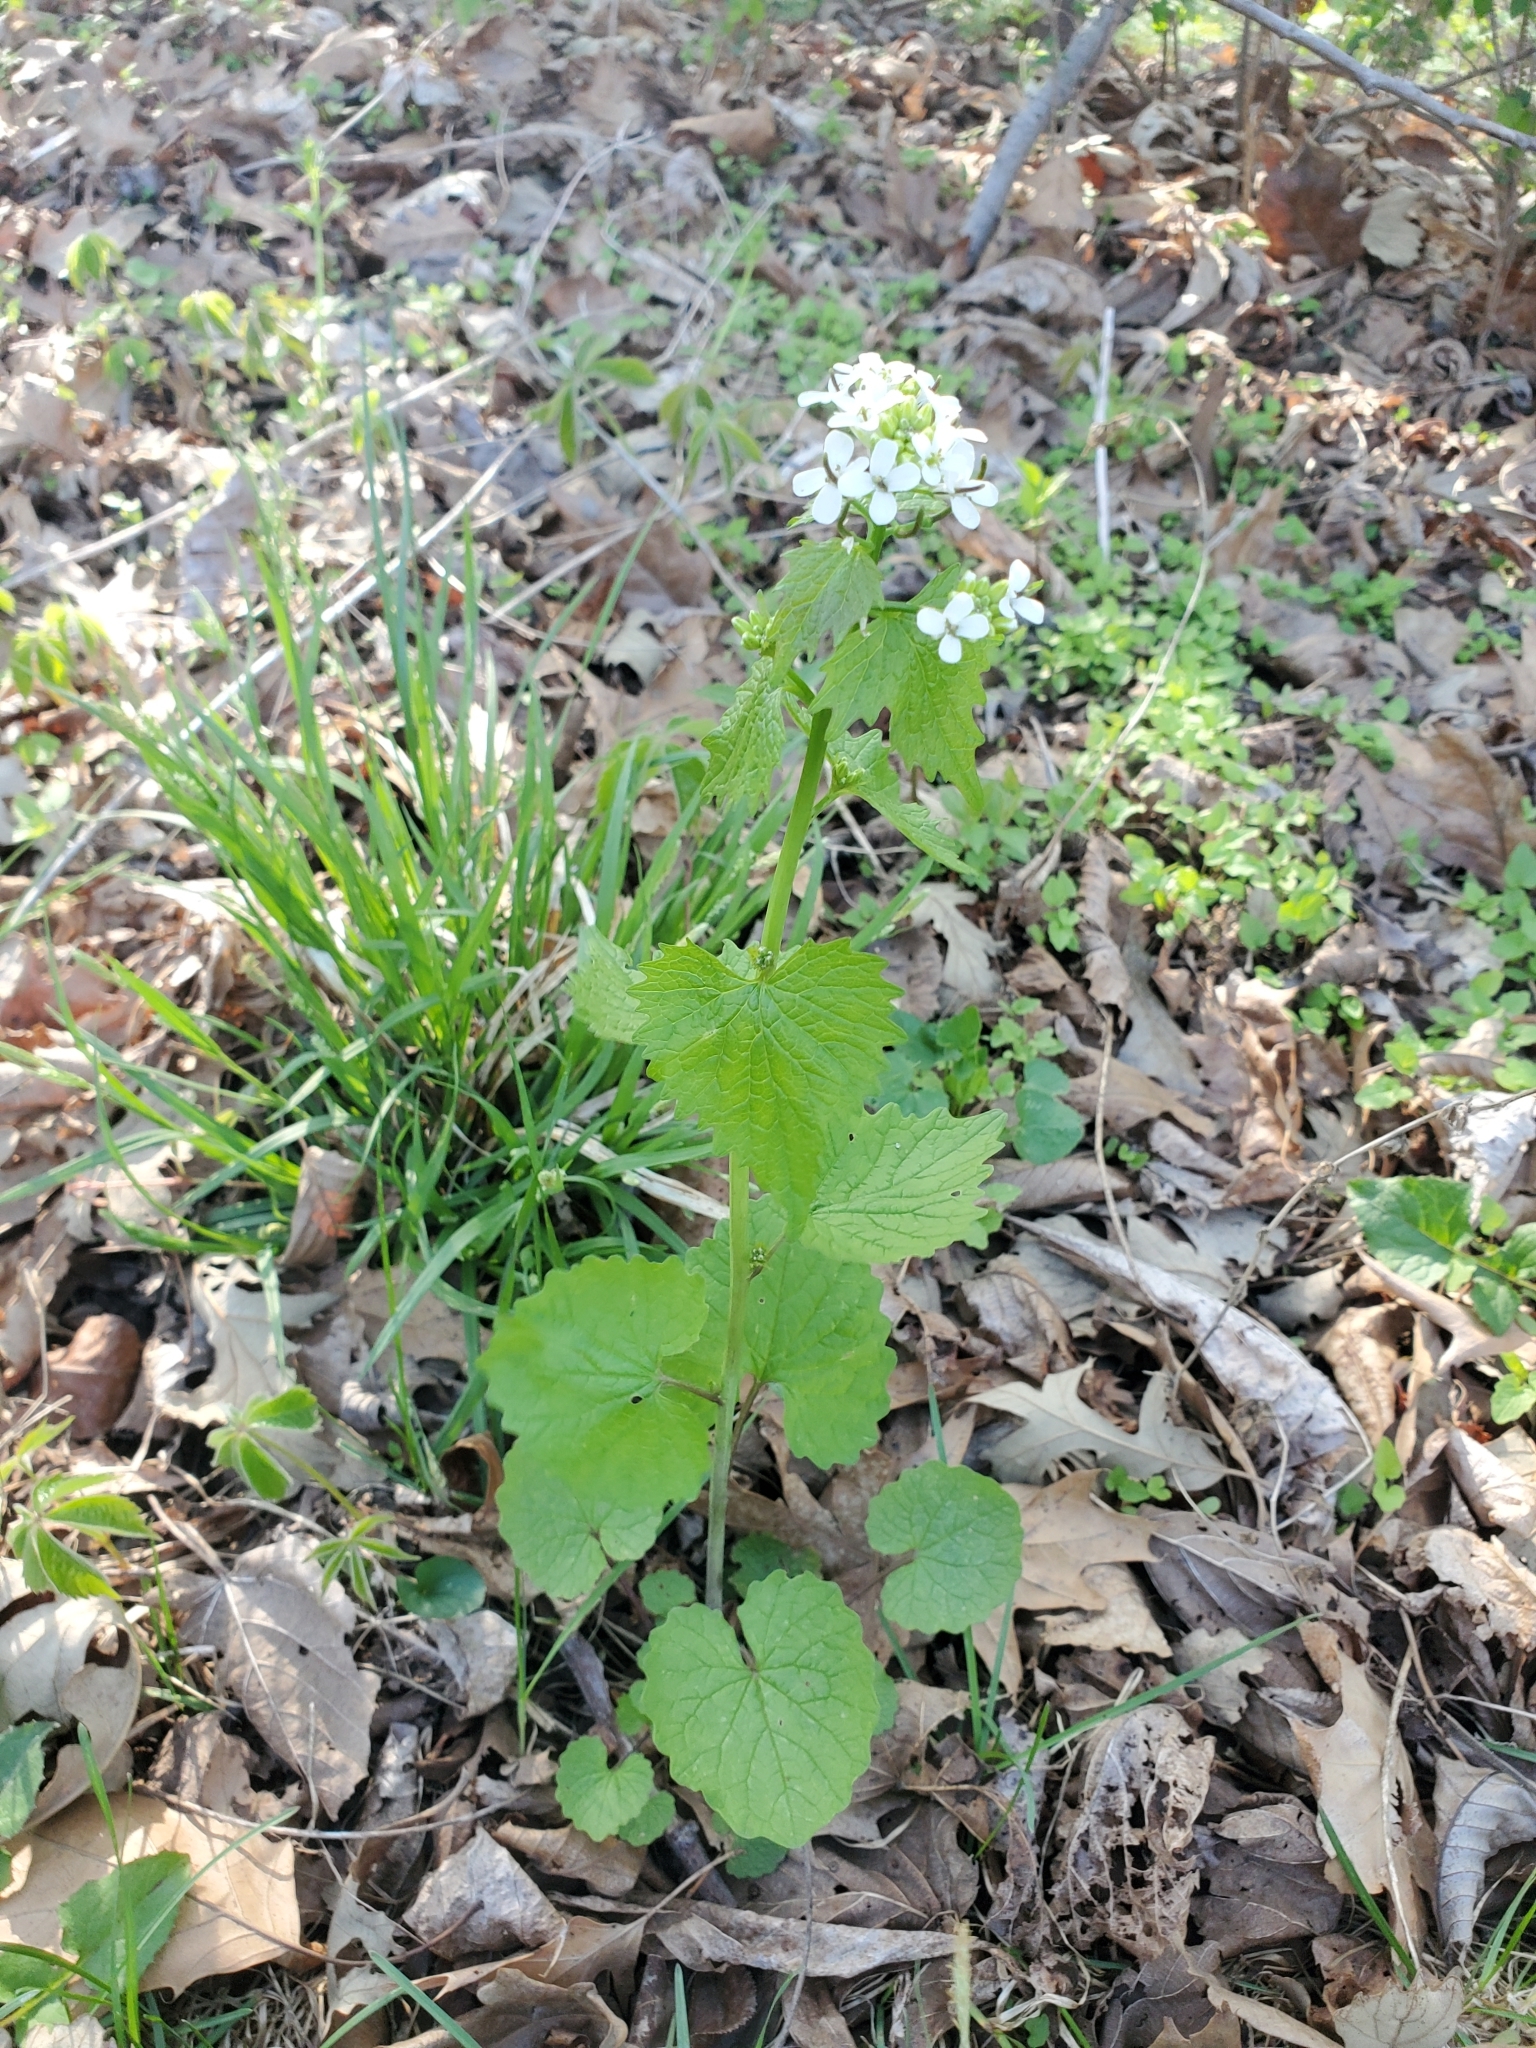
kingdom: Plantae
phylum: Tracheophyta
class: Magnoliopsida
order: Brassicales
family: Brassicaceae
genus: Alliaria
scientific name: Alliaria petiolata
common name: Garlic mustard
